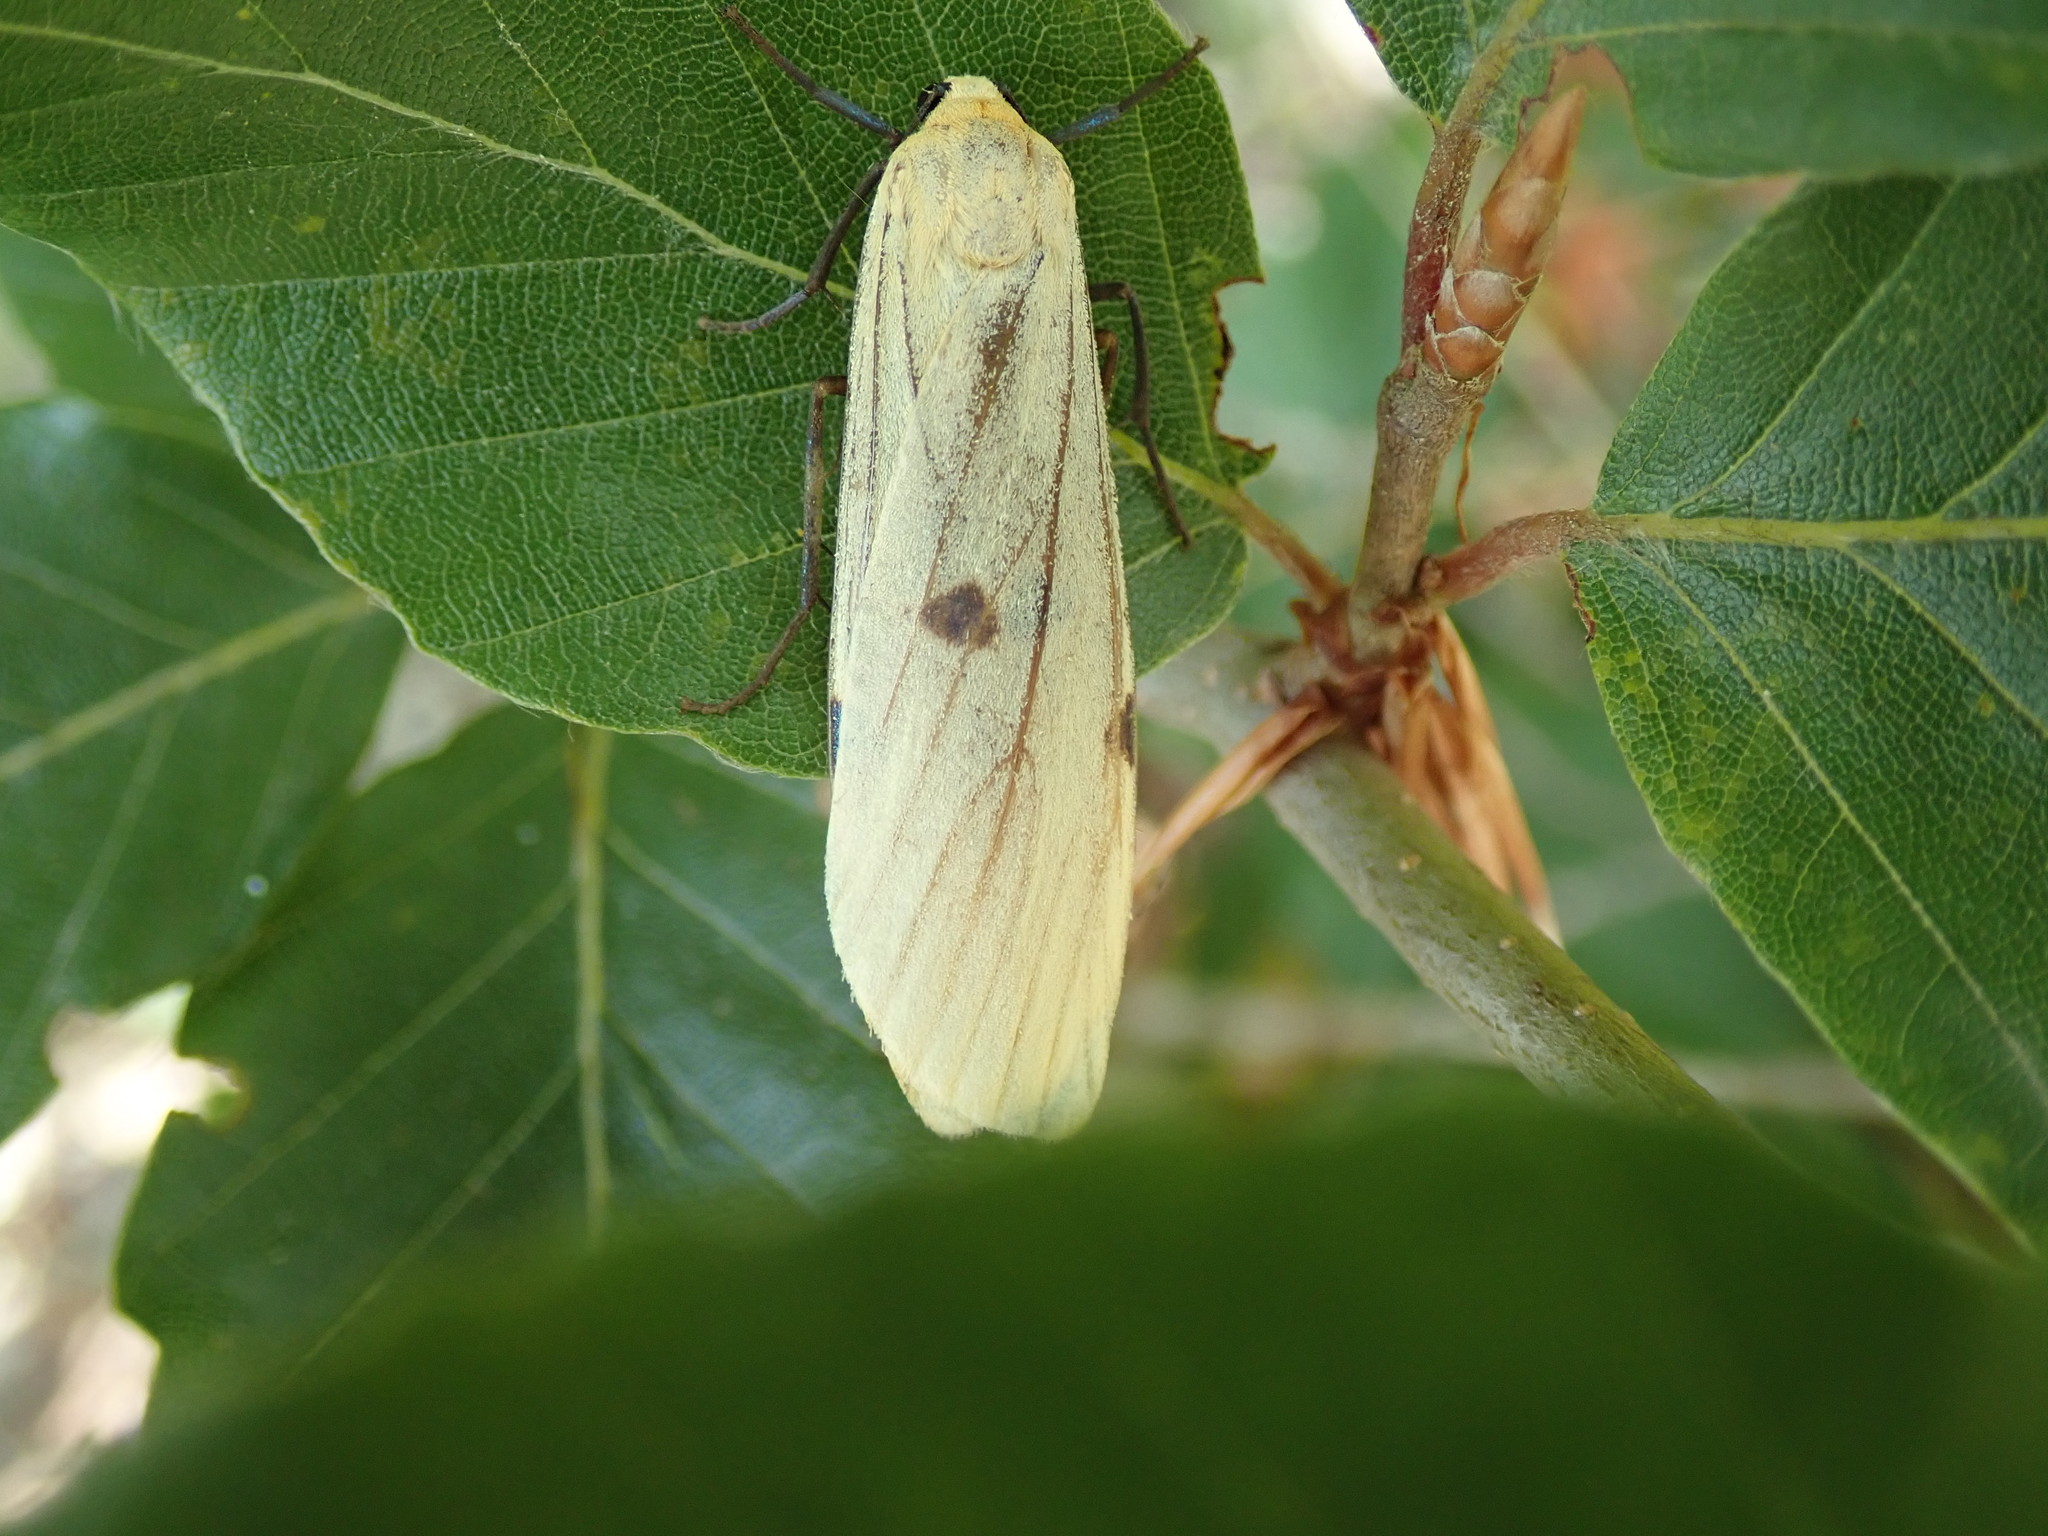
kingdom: Animalia
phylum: Arthropoda
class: Insecta
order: Lepidoptera
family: Erebidae
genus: Lithosia
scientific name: Lithosia quadra
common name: Four-spotted footman
